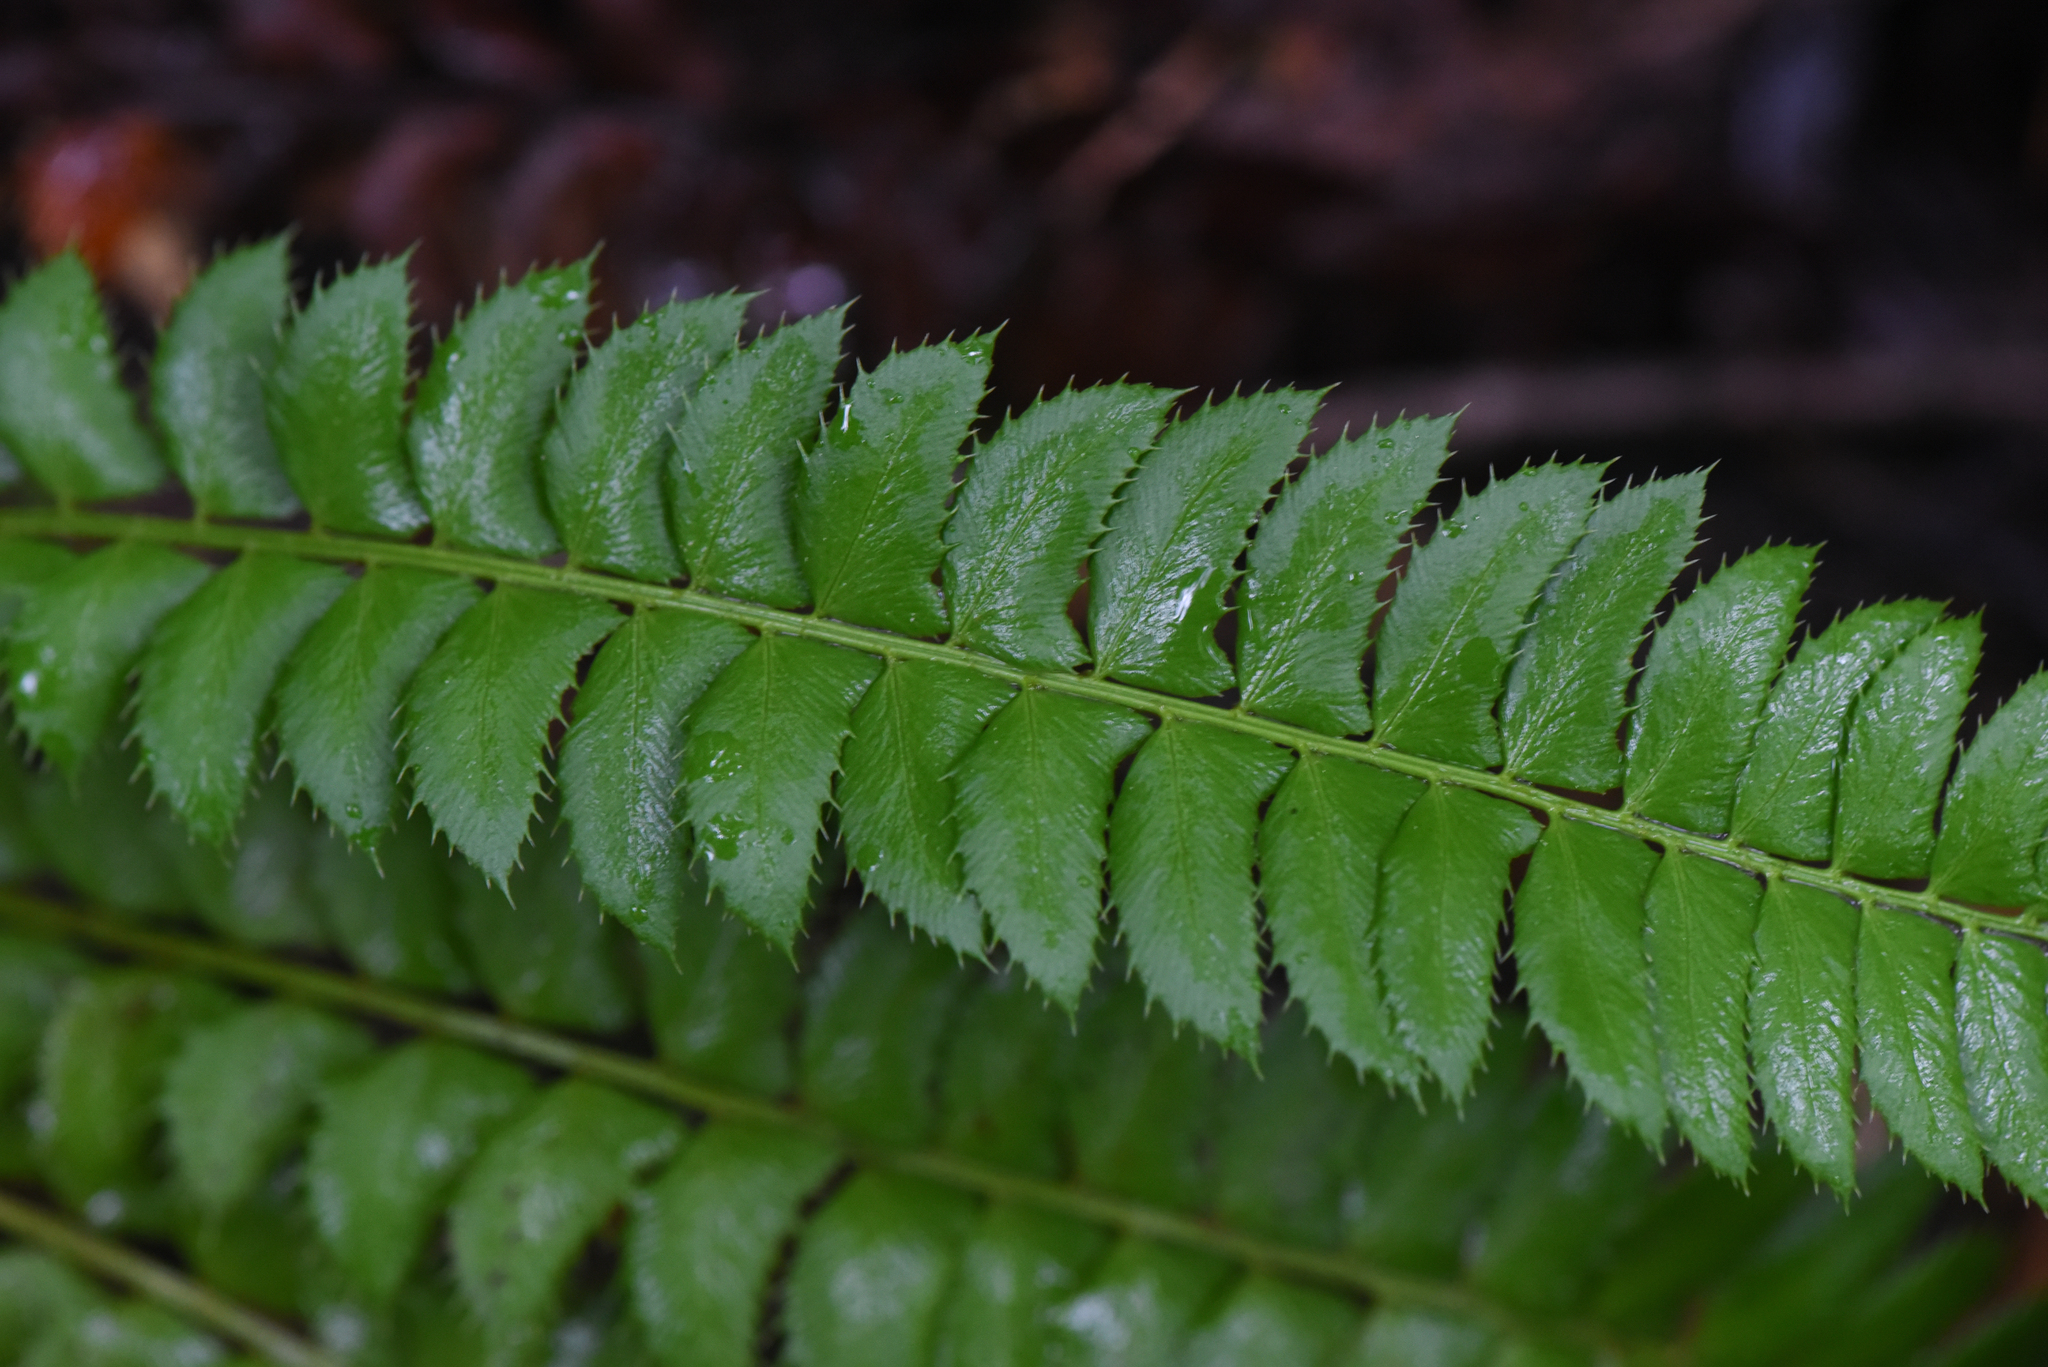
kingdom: Plantae
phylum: Tracheophyta
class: Polypodiopsida
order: Polypodiales
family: Dryopteridaceae
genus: Polystichum
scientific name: Polystichum lonchitis
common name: Holly fern
